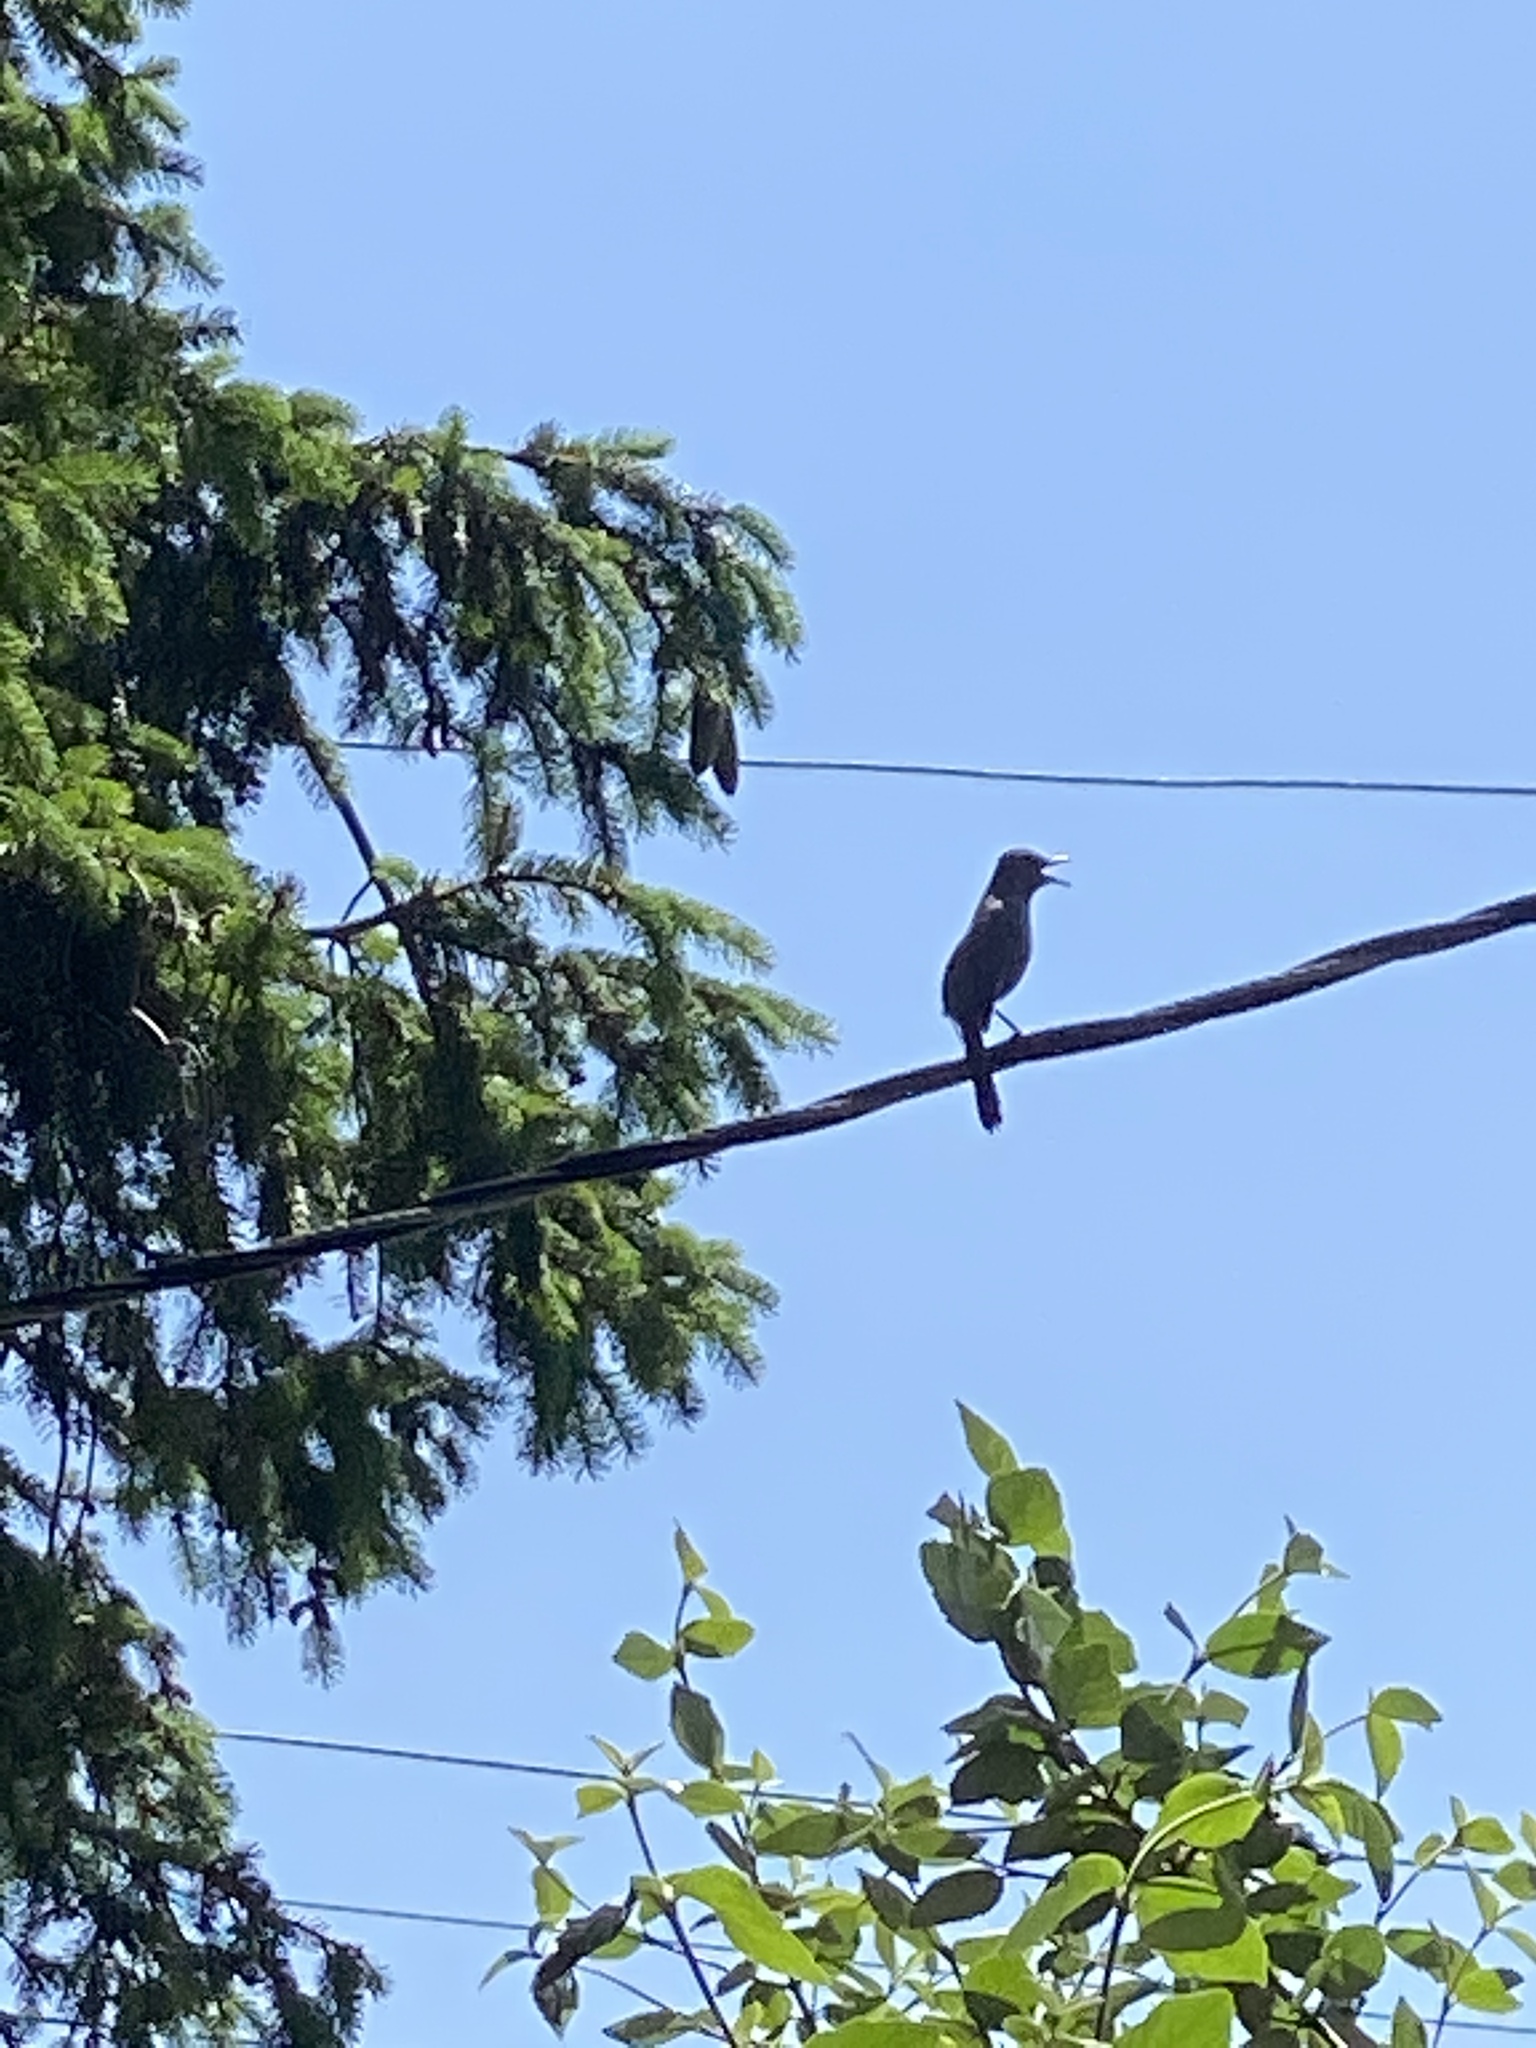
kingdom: Animalia
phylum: Chordata
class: Aves
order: Passeriformes
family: Mimidae
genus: Dumetella
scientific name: Dumetella carolinensis
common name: Gray catbird
